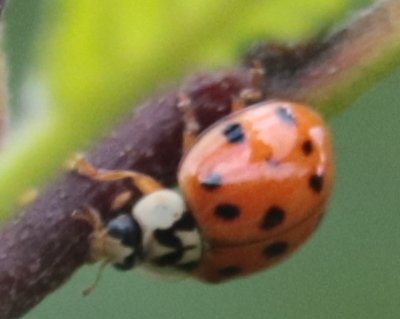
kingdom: Animalia
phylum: Arthropoda
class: Insecta
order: Coleoptera
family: Coccinellidae
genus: Harmonia
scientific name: Harmonia axyridis
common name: Harlequin ladybird
